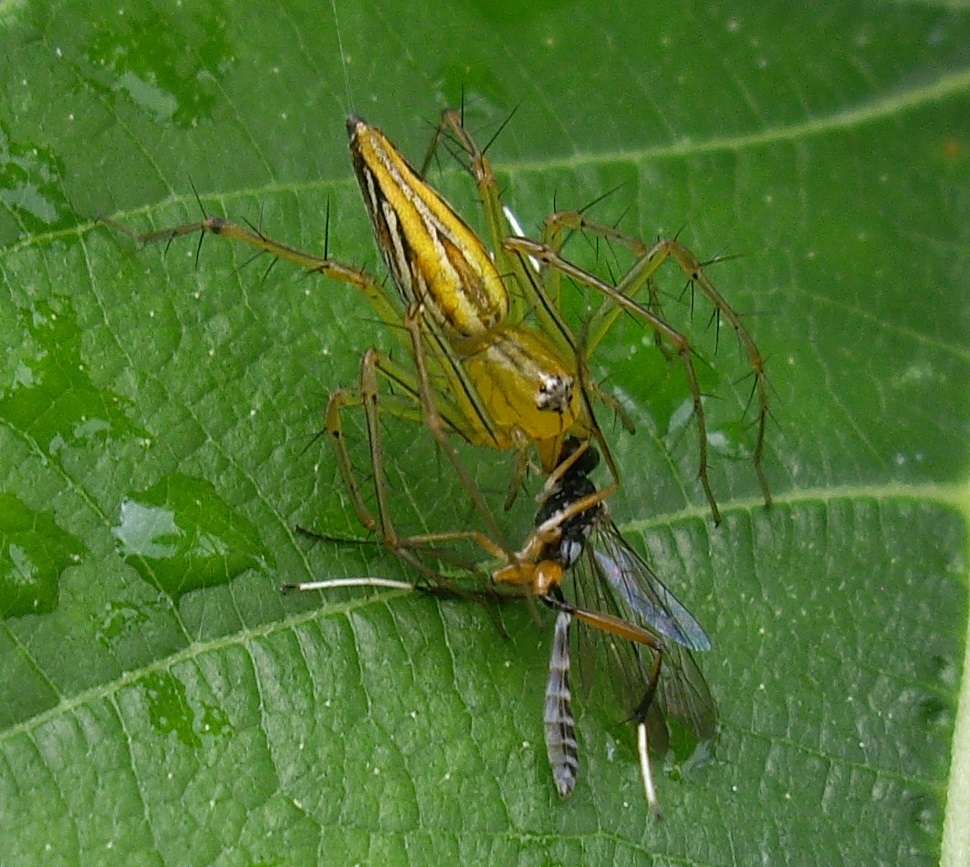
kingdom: Animalia
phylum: Arthropoda
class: Arachnida
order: Araneae
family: Oxyopidae
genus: Oxyopes
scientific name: Oxyopes
